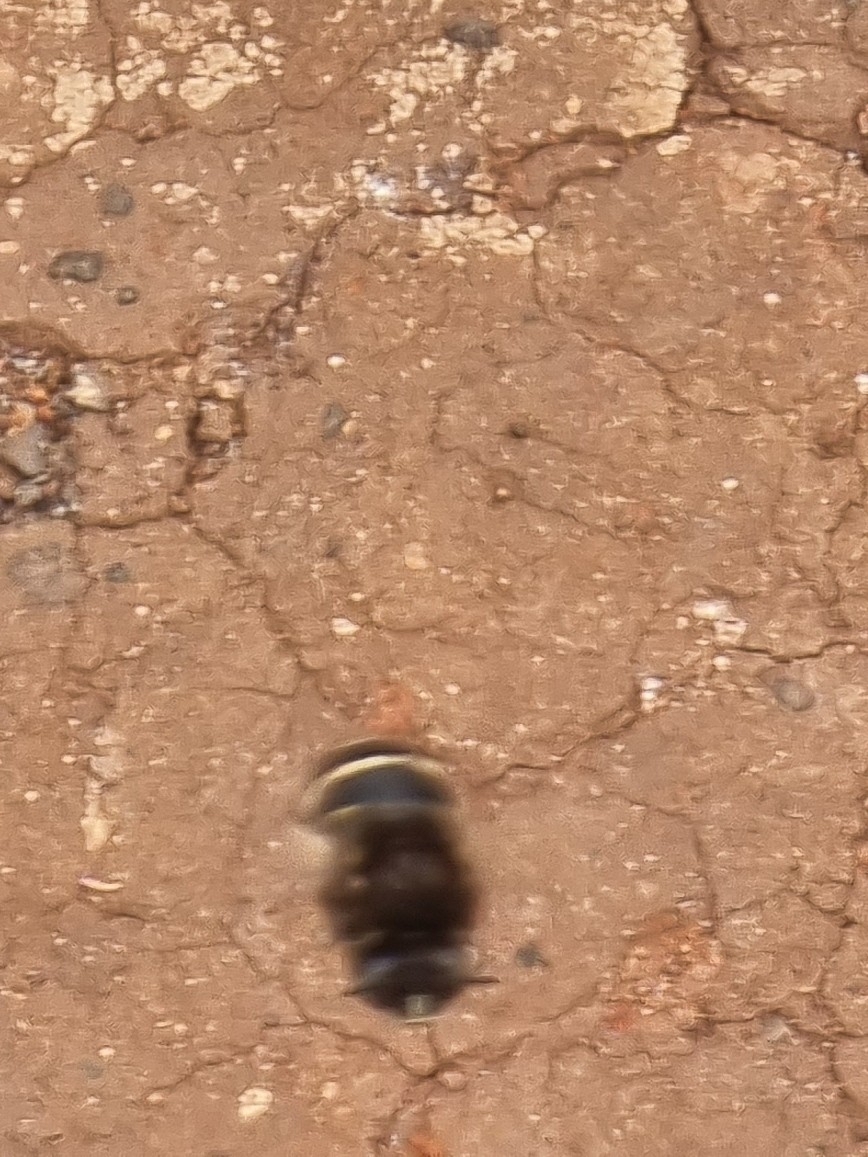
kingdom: Animalia
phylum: Arthropoda
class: Insecta
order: Hymenoptera
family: Apidae
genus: Amegilla
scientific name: Amegilla quadrifasciata
